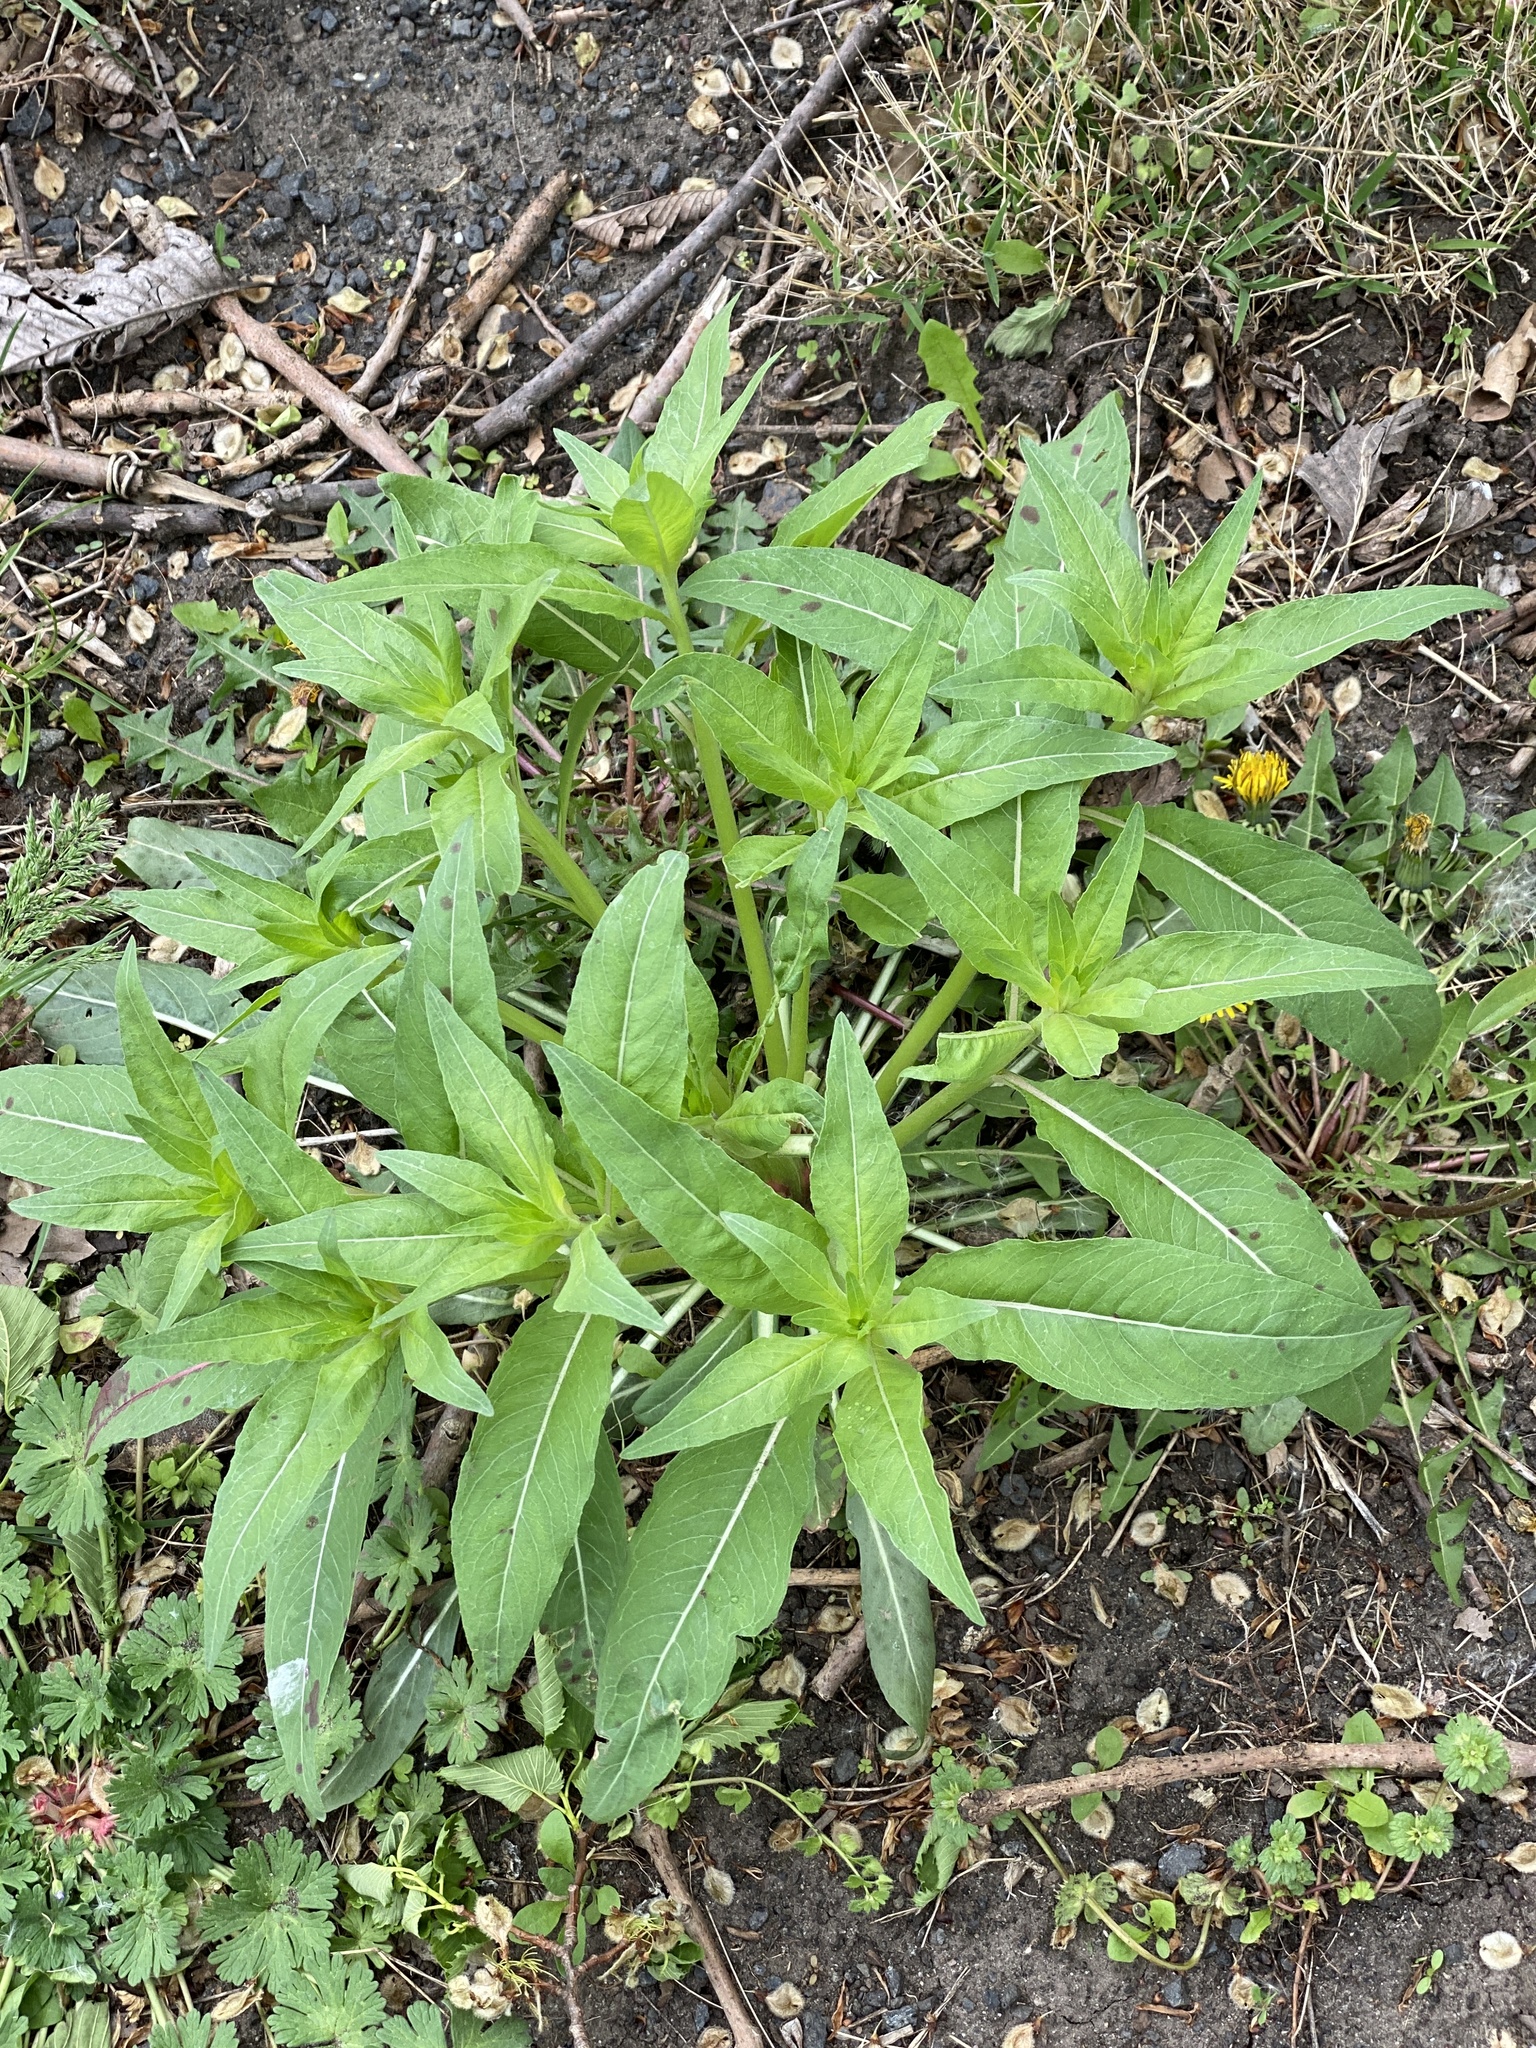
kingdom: Plantae
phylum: Tracheophyta
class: Magnoliopsida
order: Myrtales
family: Onagraceae
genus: Oenothera
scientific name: Oenothera biennis
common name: Common evening-primrose
